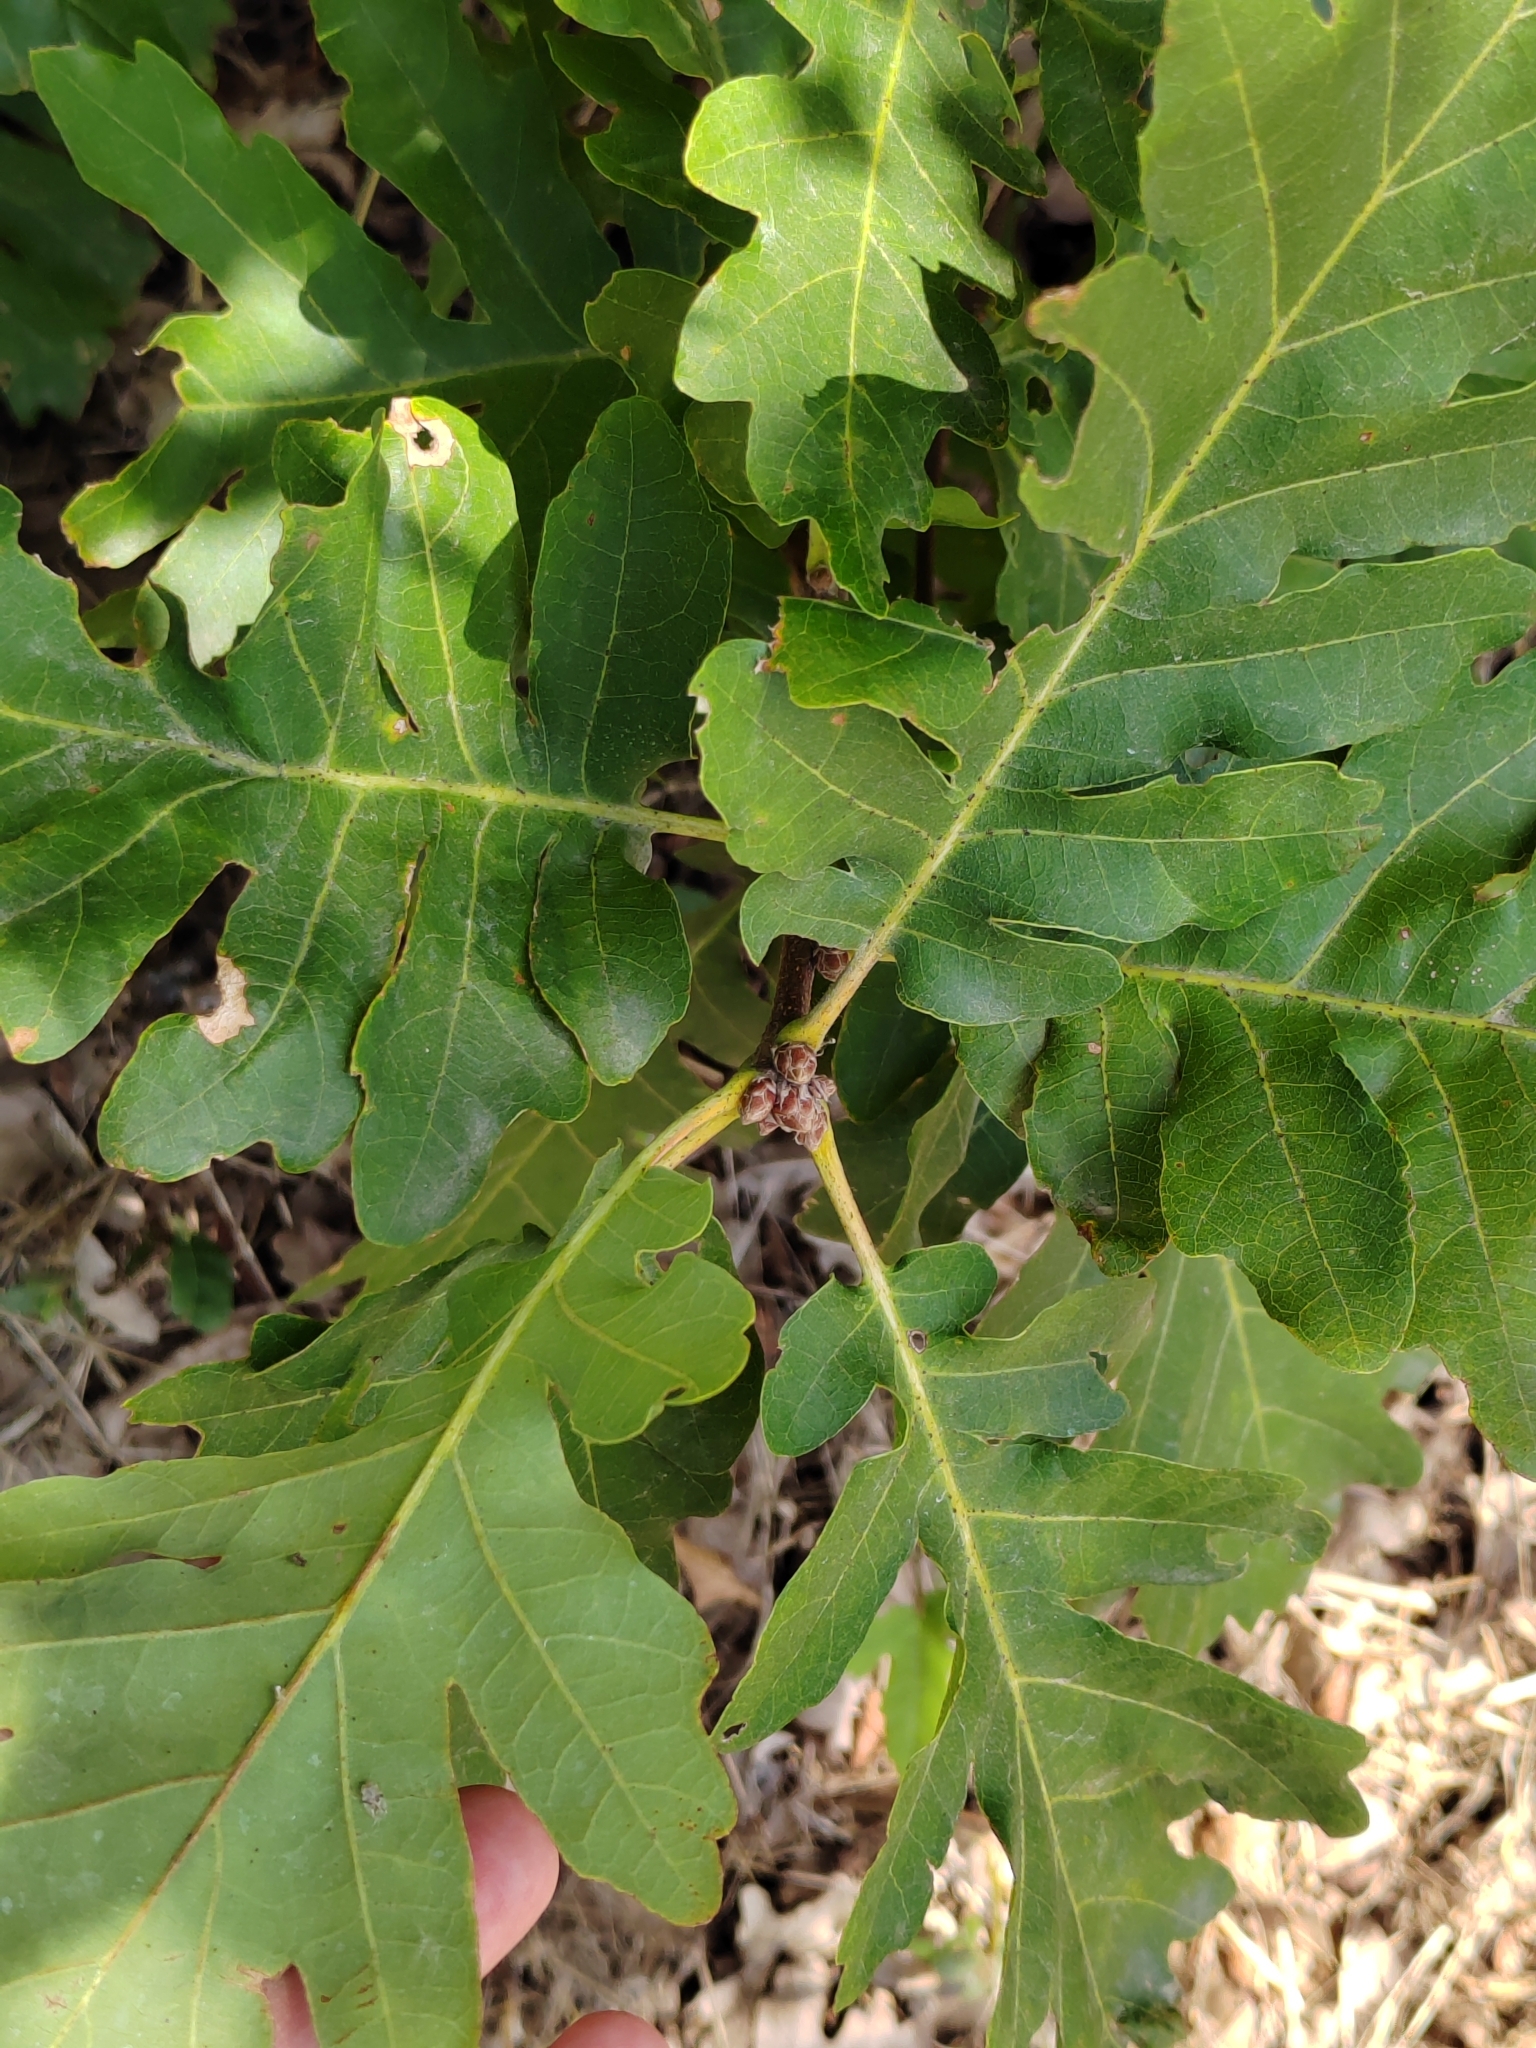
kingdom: Plantae
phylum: Tracheophyta
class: Magnoliopsida
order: Fagales
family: Fagaceae
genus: Quercus
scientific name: Quercus pubescens
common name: Downy oak
